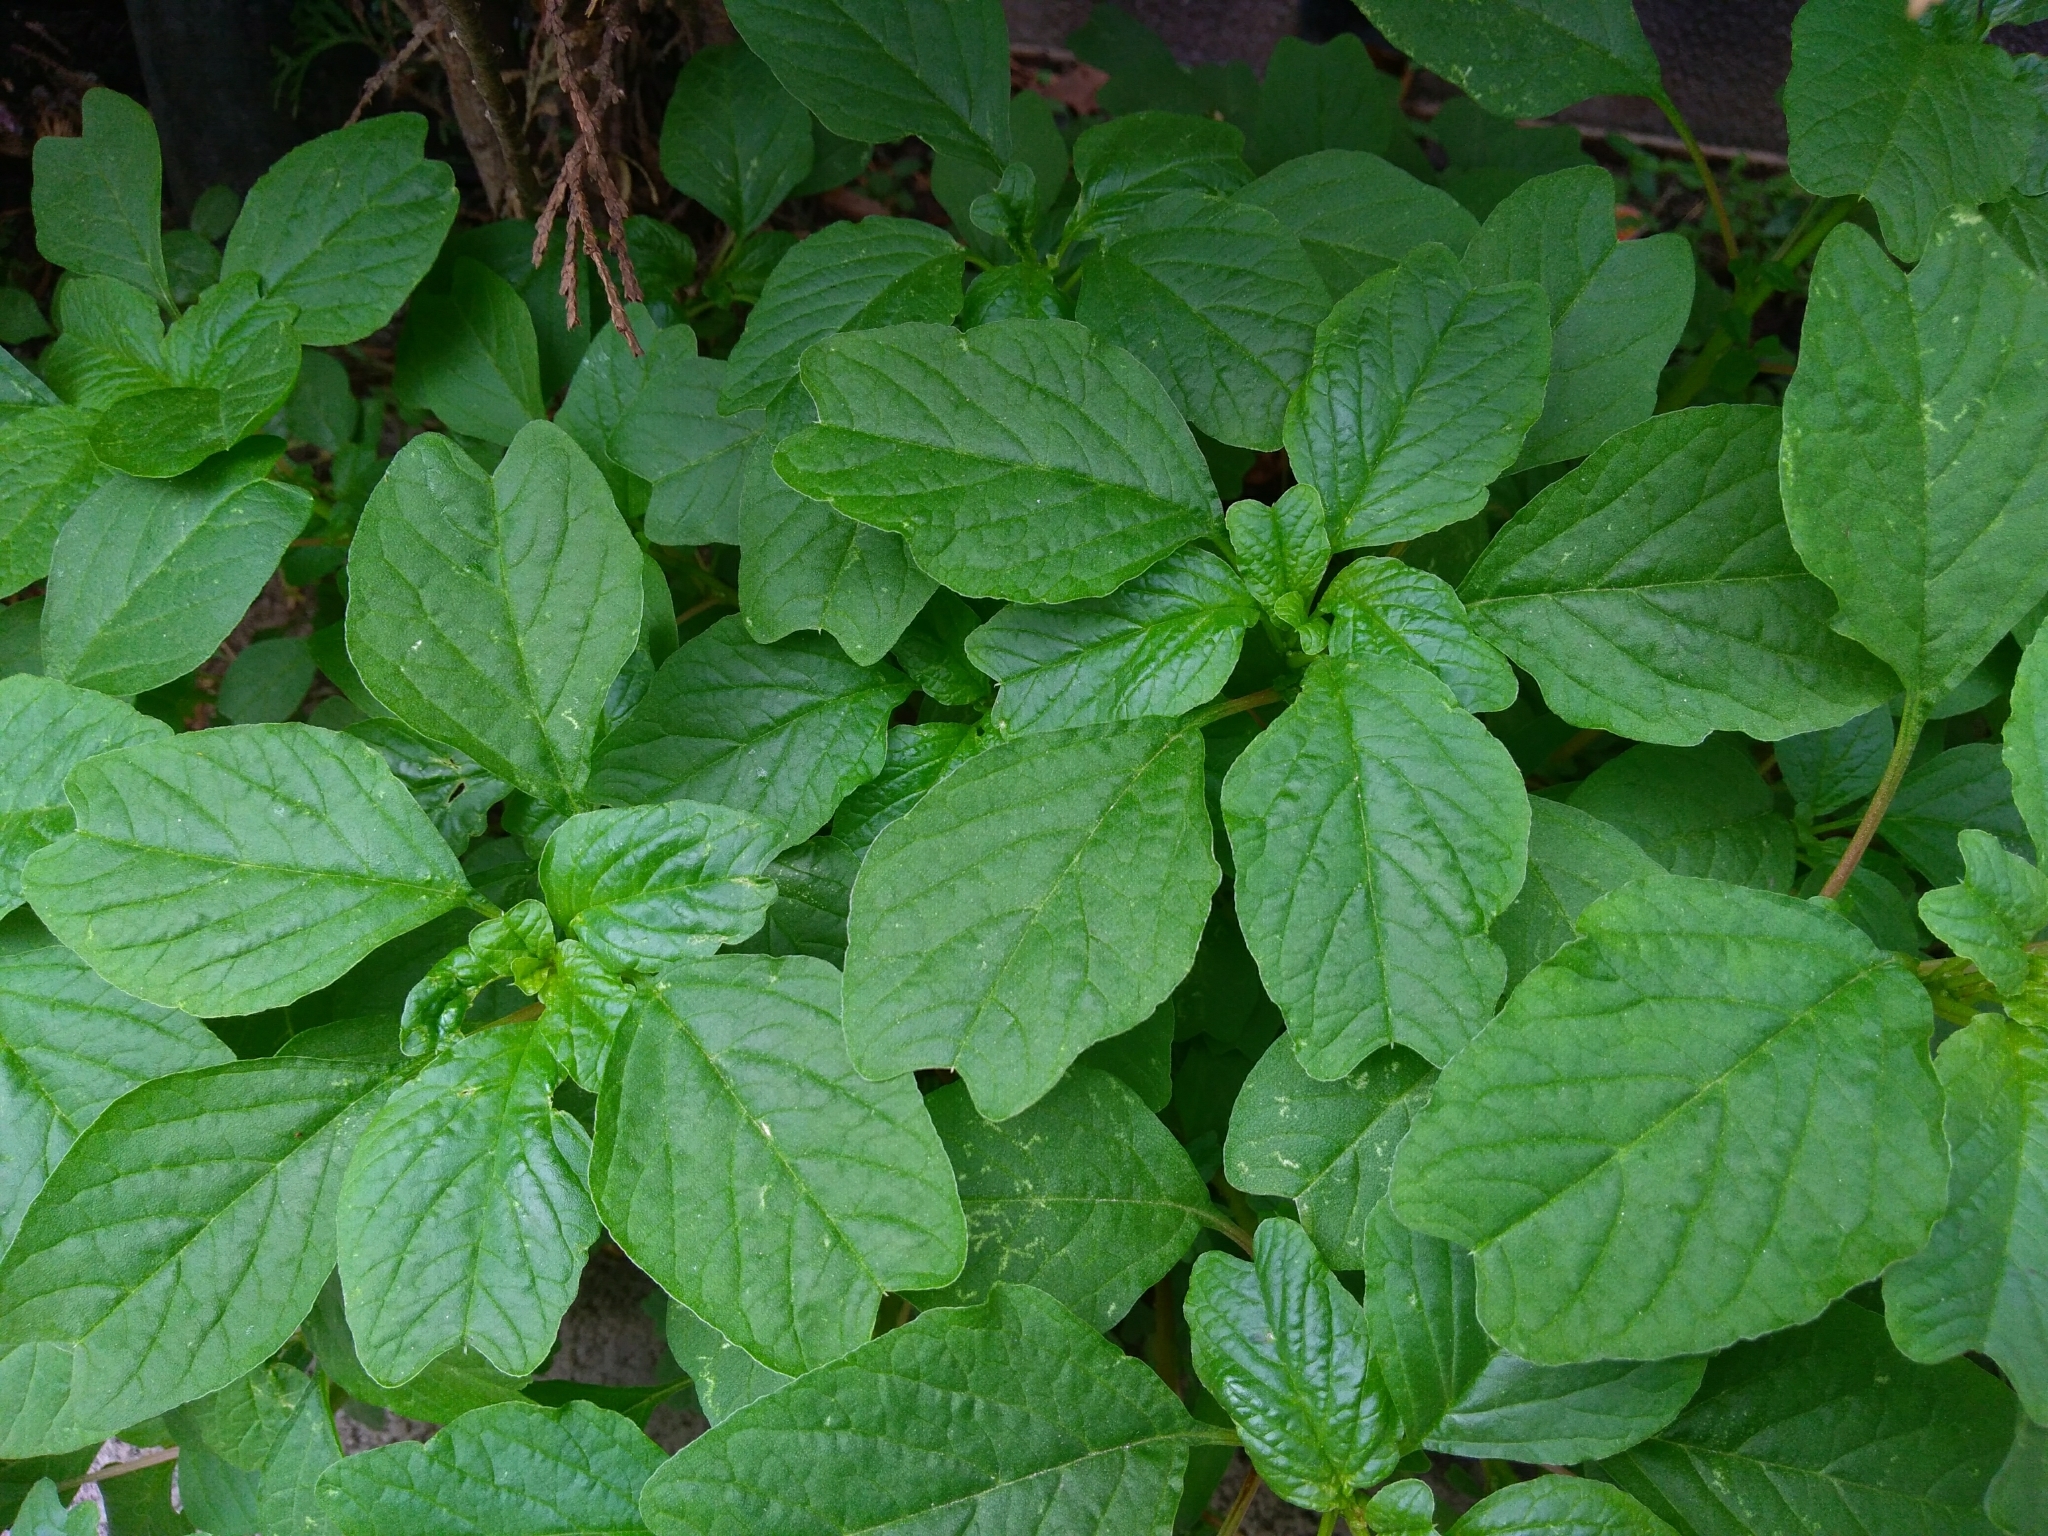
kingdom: Plantae
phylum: Tracheophyta
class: Magnoliopsida
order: Caryophyllales
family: Amaranthaceae
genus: Amaranthus
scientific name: Amaranthus blitum
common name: Purple amaranth
